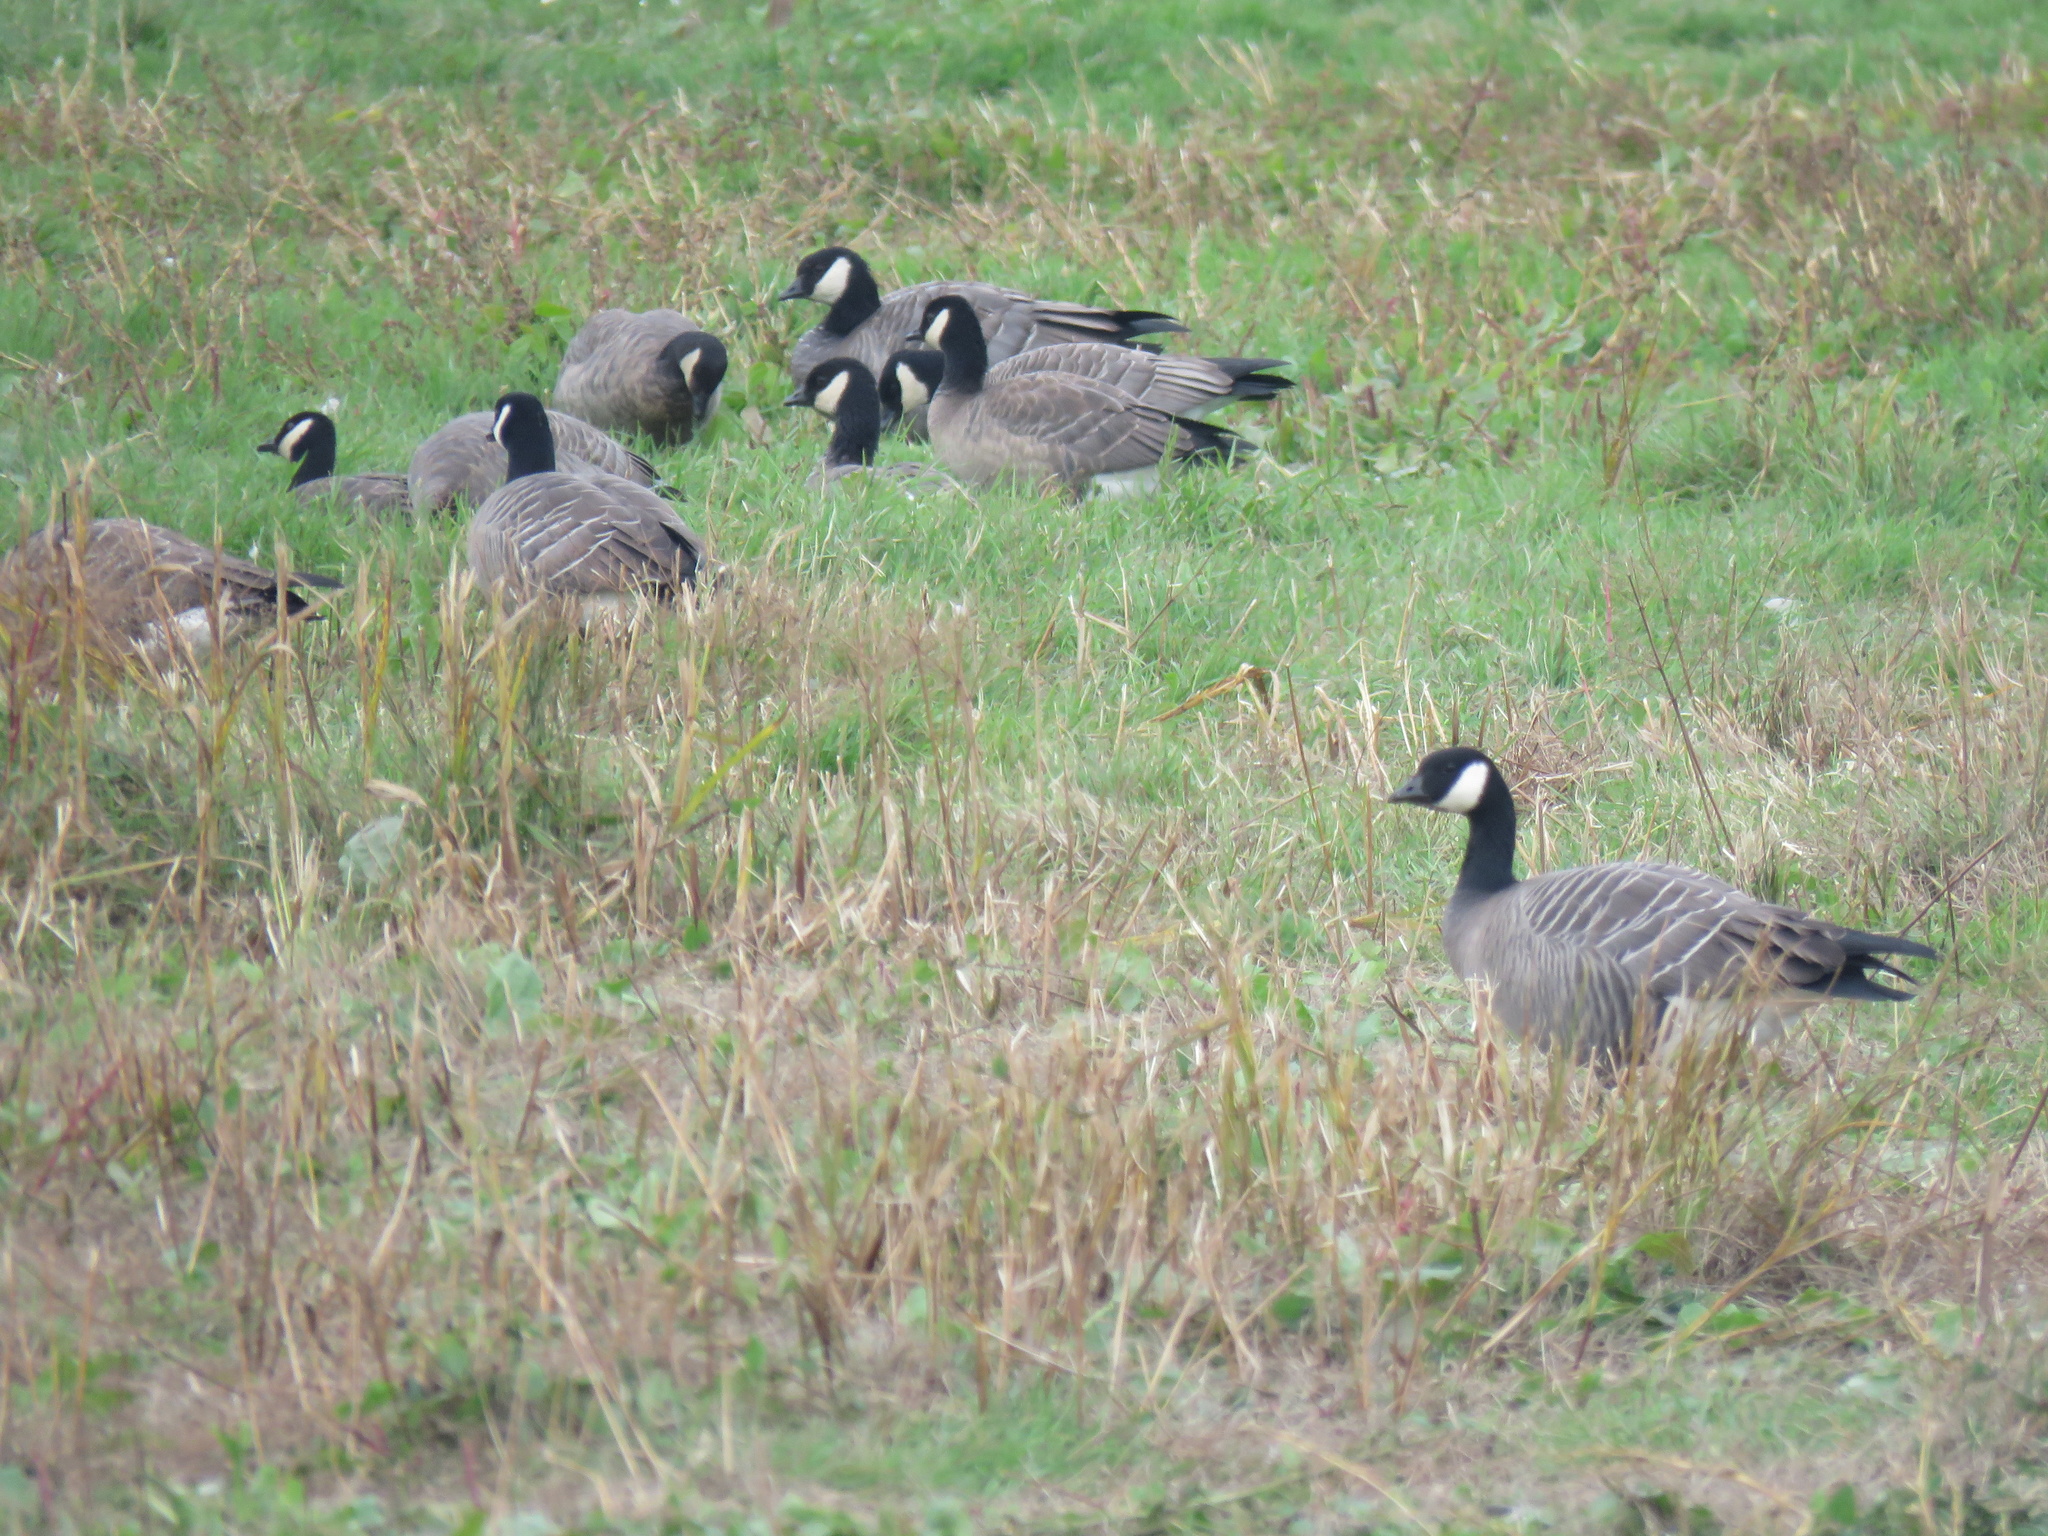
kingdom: Animalia
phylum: Chordata
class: Aves
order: Anseriformes
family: Anatidae
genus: Branta
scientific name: Branta hutchinsii
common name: Cackling goose
